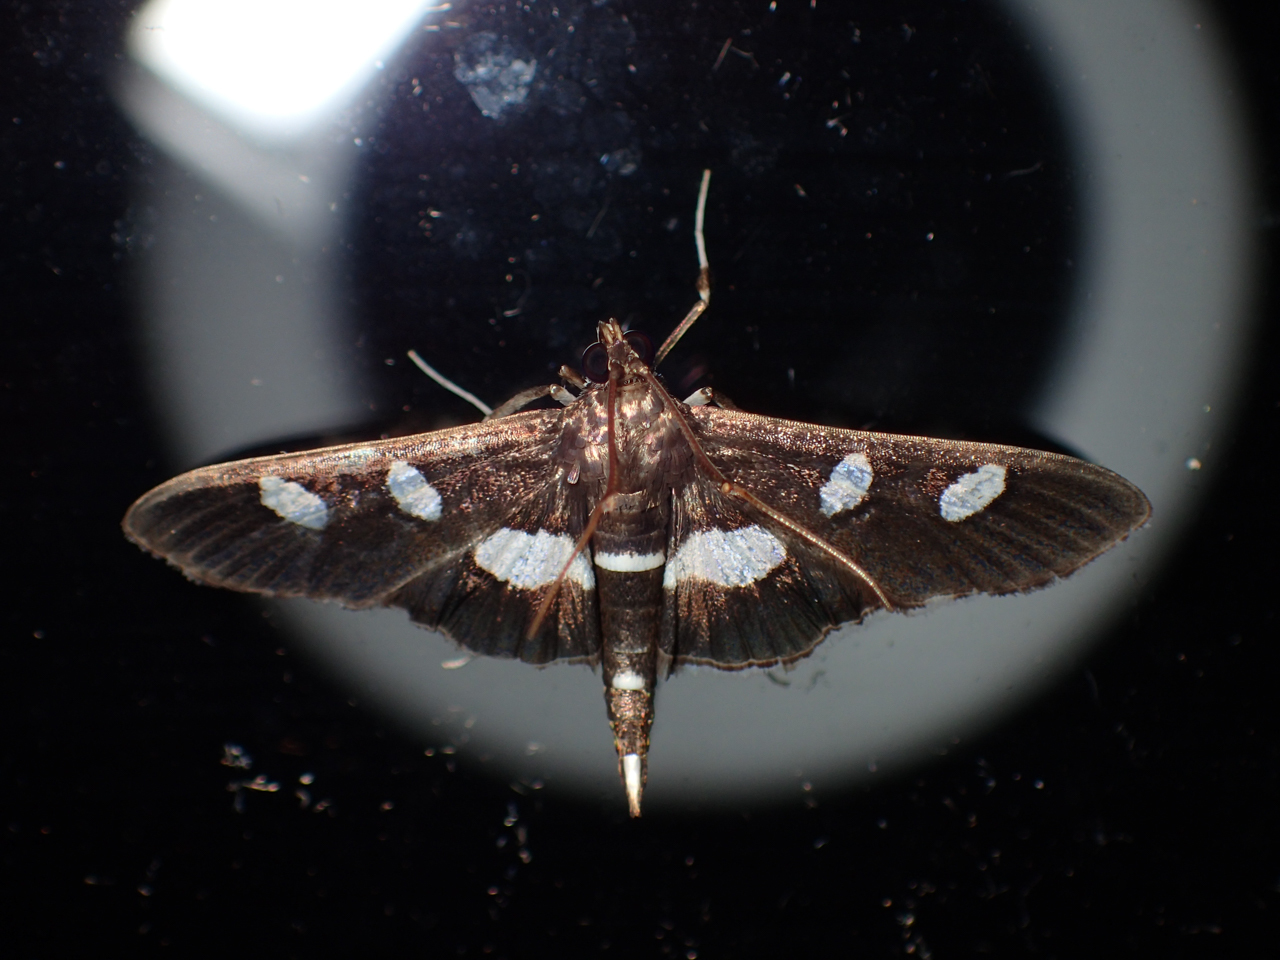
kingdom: Animalia
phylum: Arthropoda
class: Insecta
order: Lepidoptera
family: Crambidae
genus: Desmia
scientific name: Desmia funeralis
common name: Grape leaf folder moth
